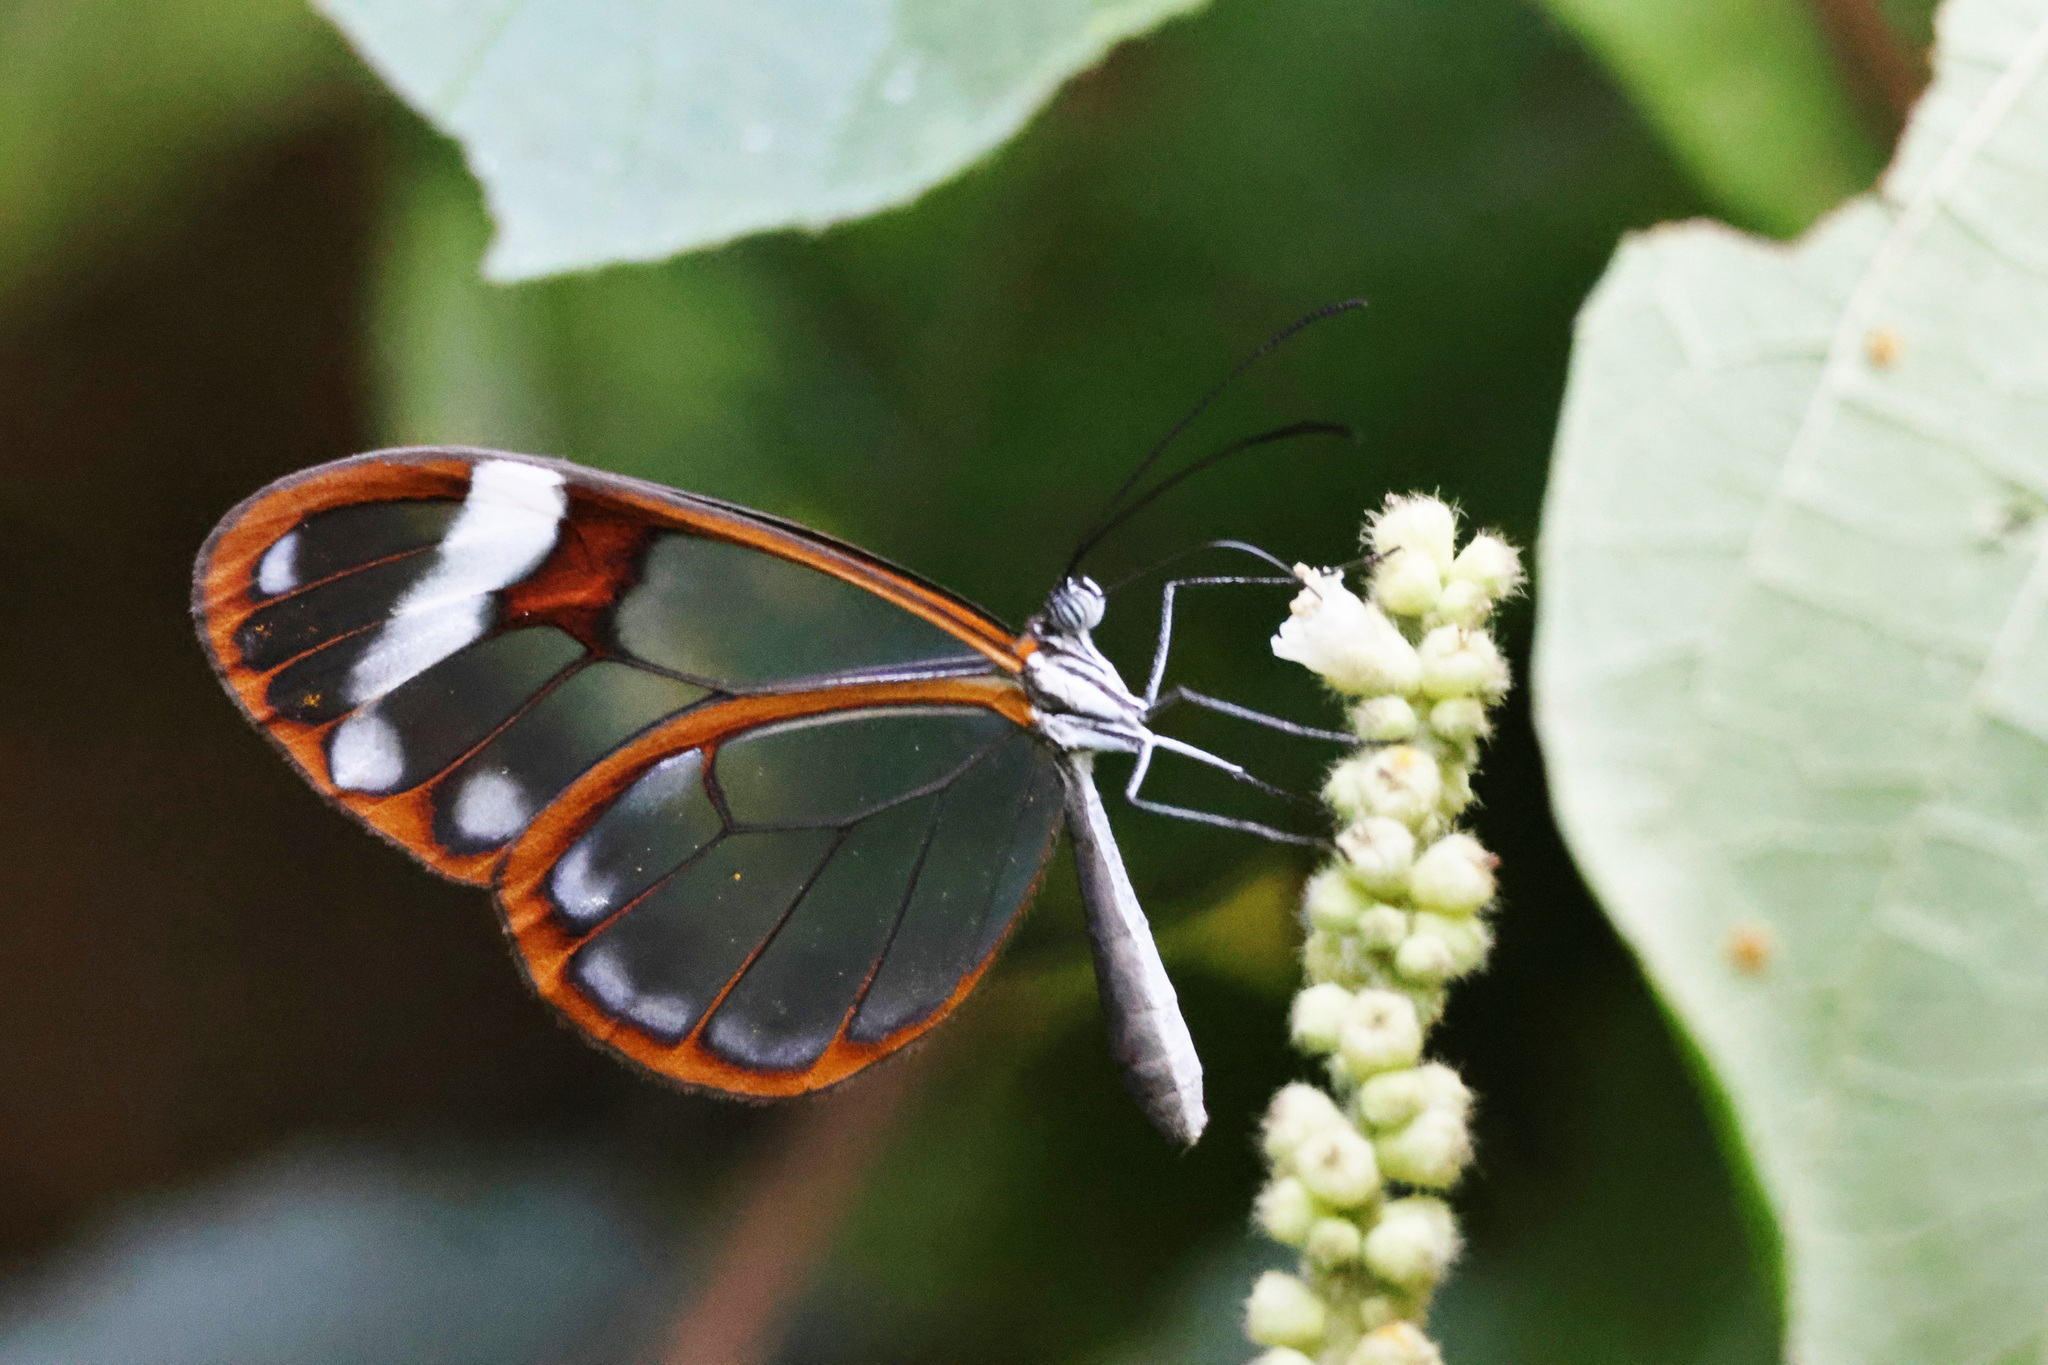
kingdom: Animalia
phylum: Arthropoda
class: Insecta
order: Lepidoptera
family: Nymphalidae
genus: Godyris
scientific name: Godyris nero
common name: Nero clearwing
